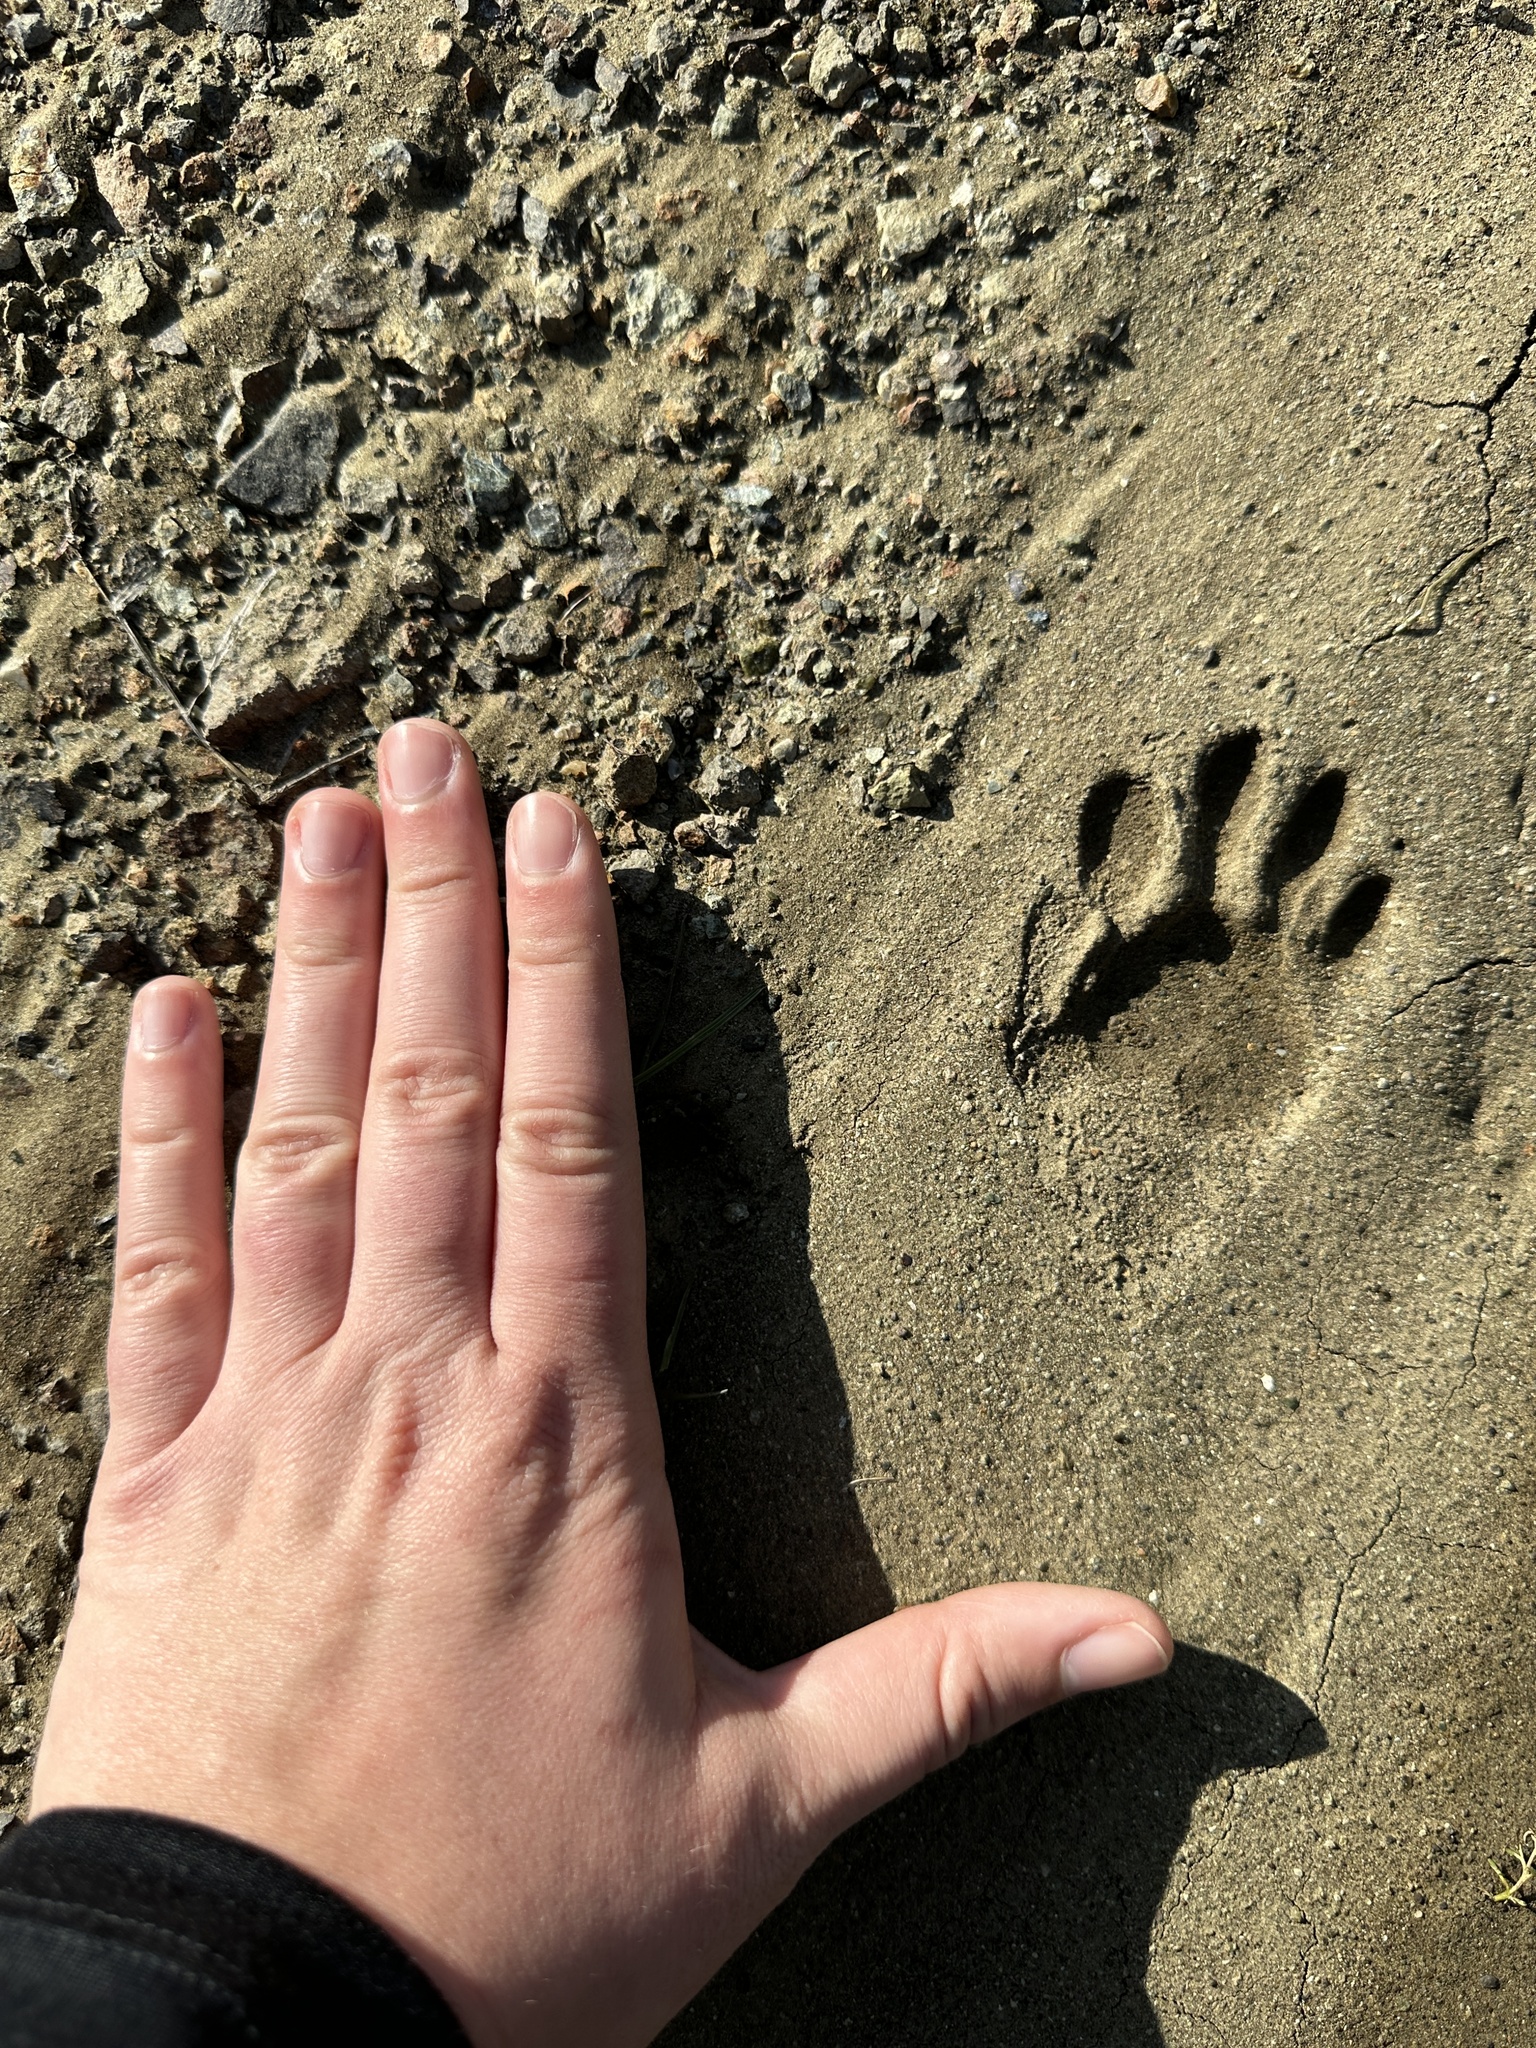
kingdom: Animalia
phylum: Chordata
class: Mammalia
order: Carnivora
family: Procyonidae
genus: Procyon
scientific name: Procyon lotor
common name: Raccoon
